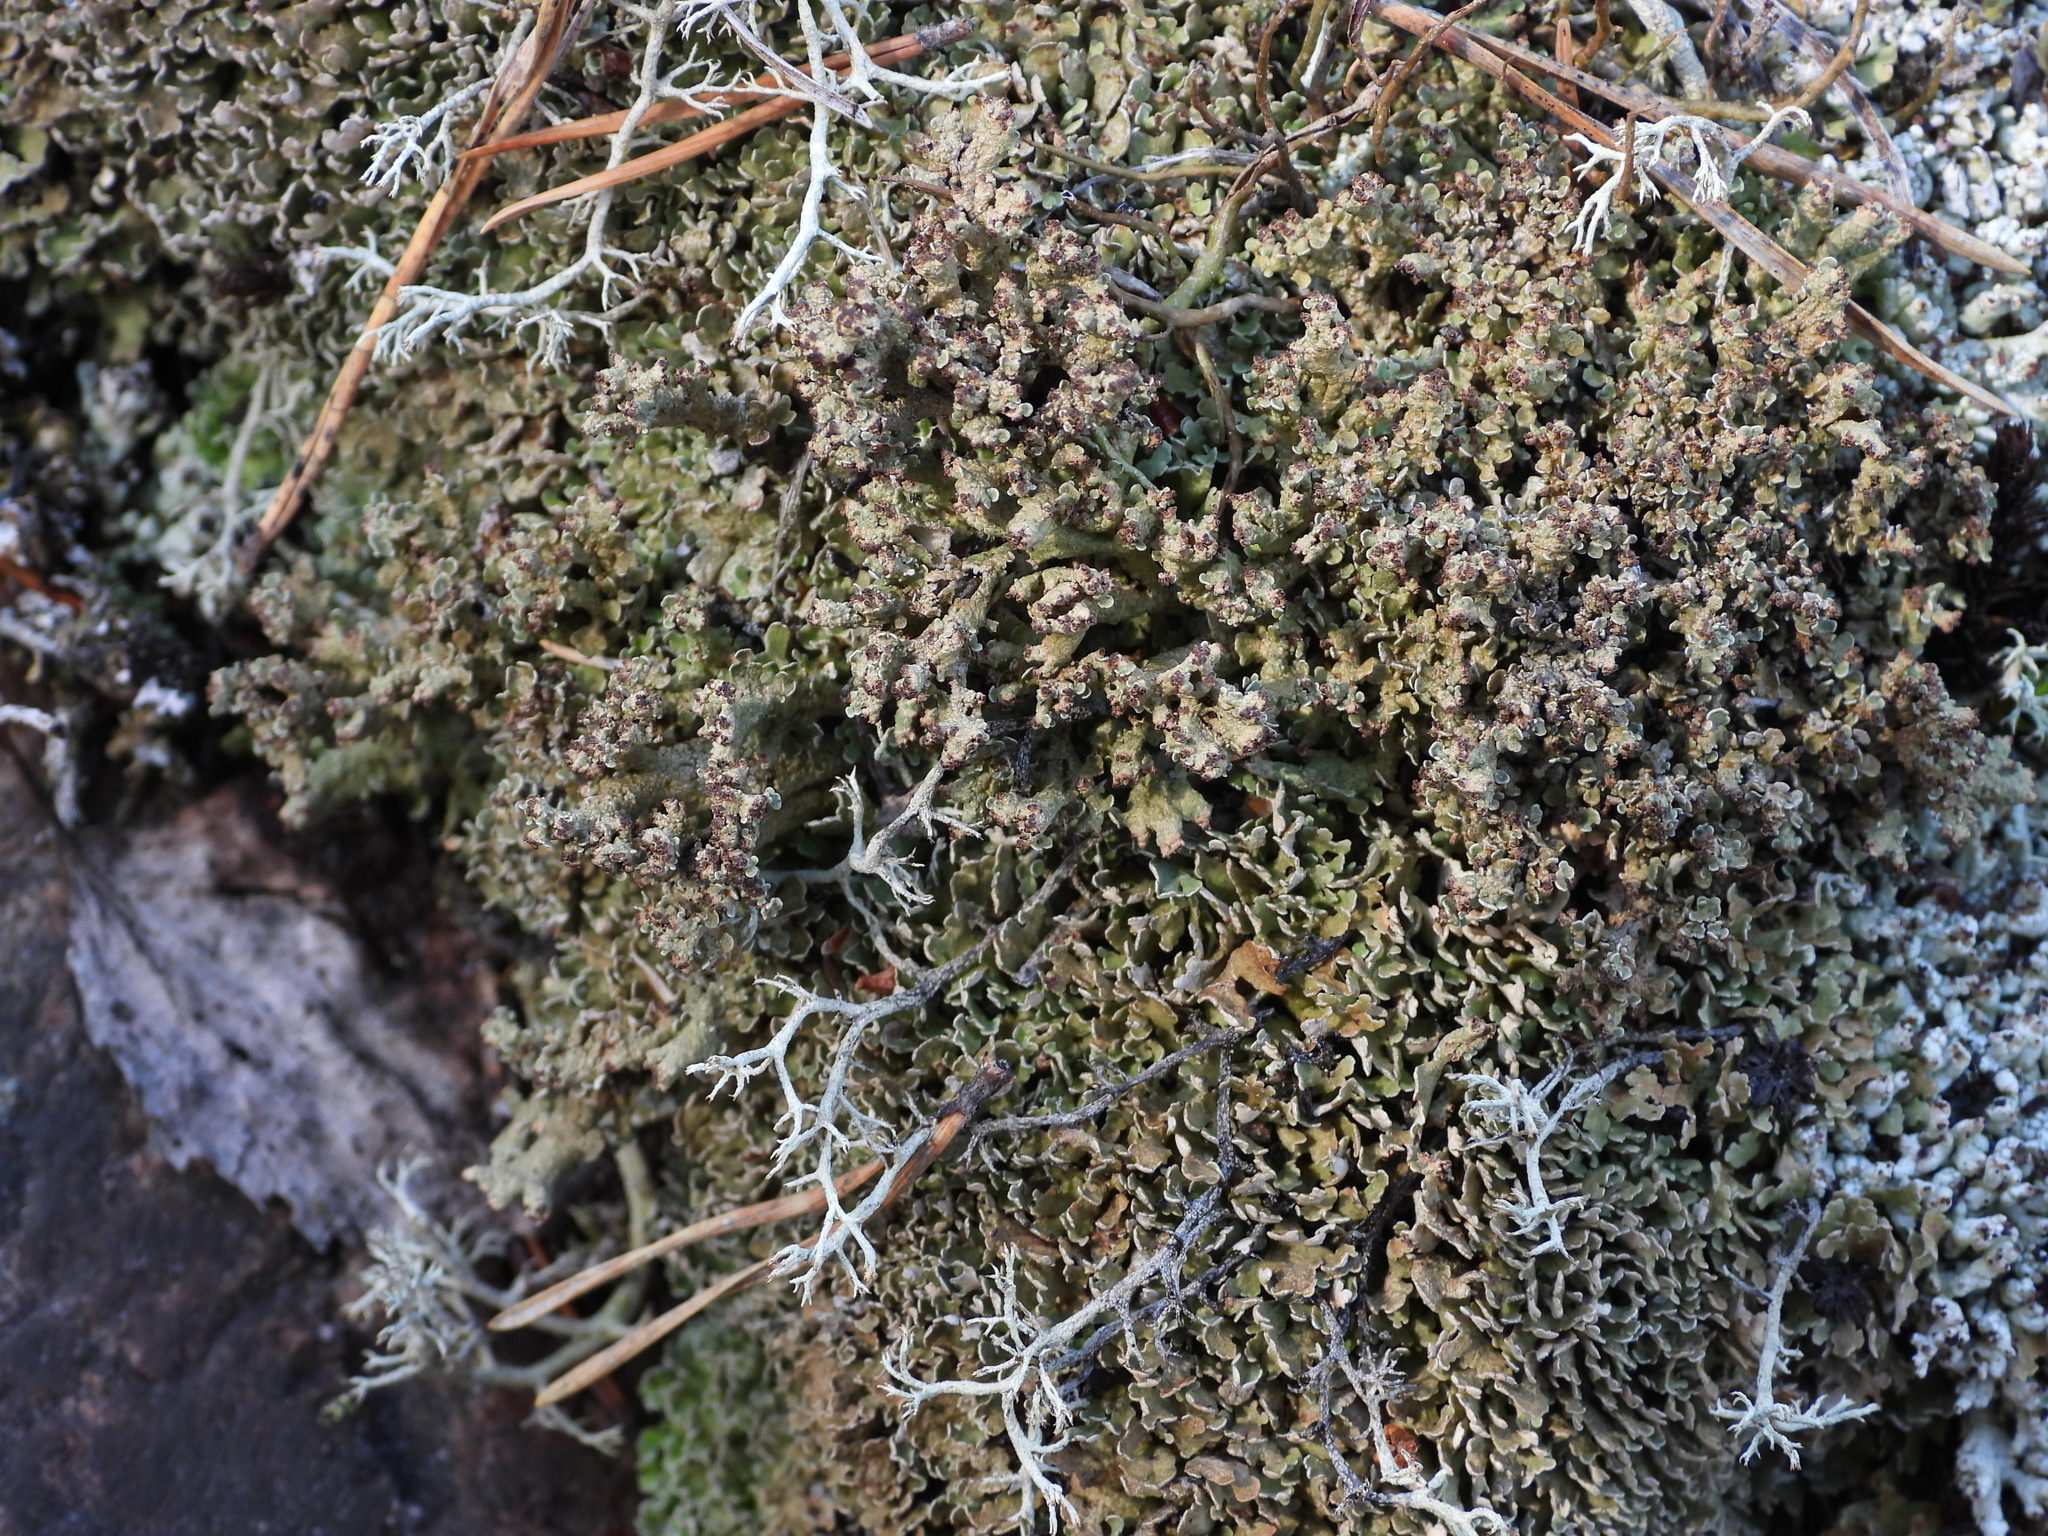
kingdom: Fungi
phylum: Ascomycota
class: Lecanoromycetes
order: Lecanorales
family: Cladoniaceae
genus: Cladonia
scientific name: Cladonia strepsilis
